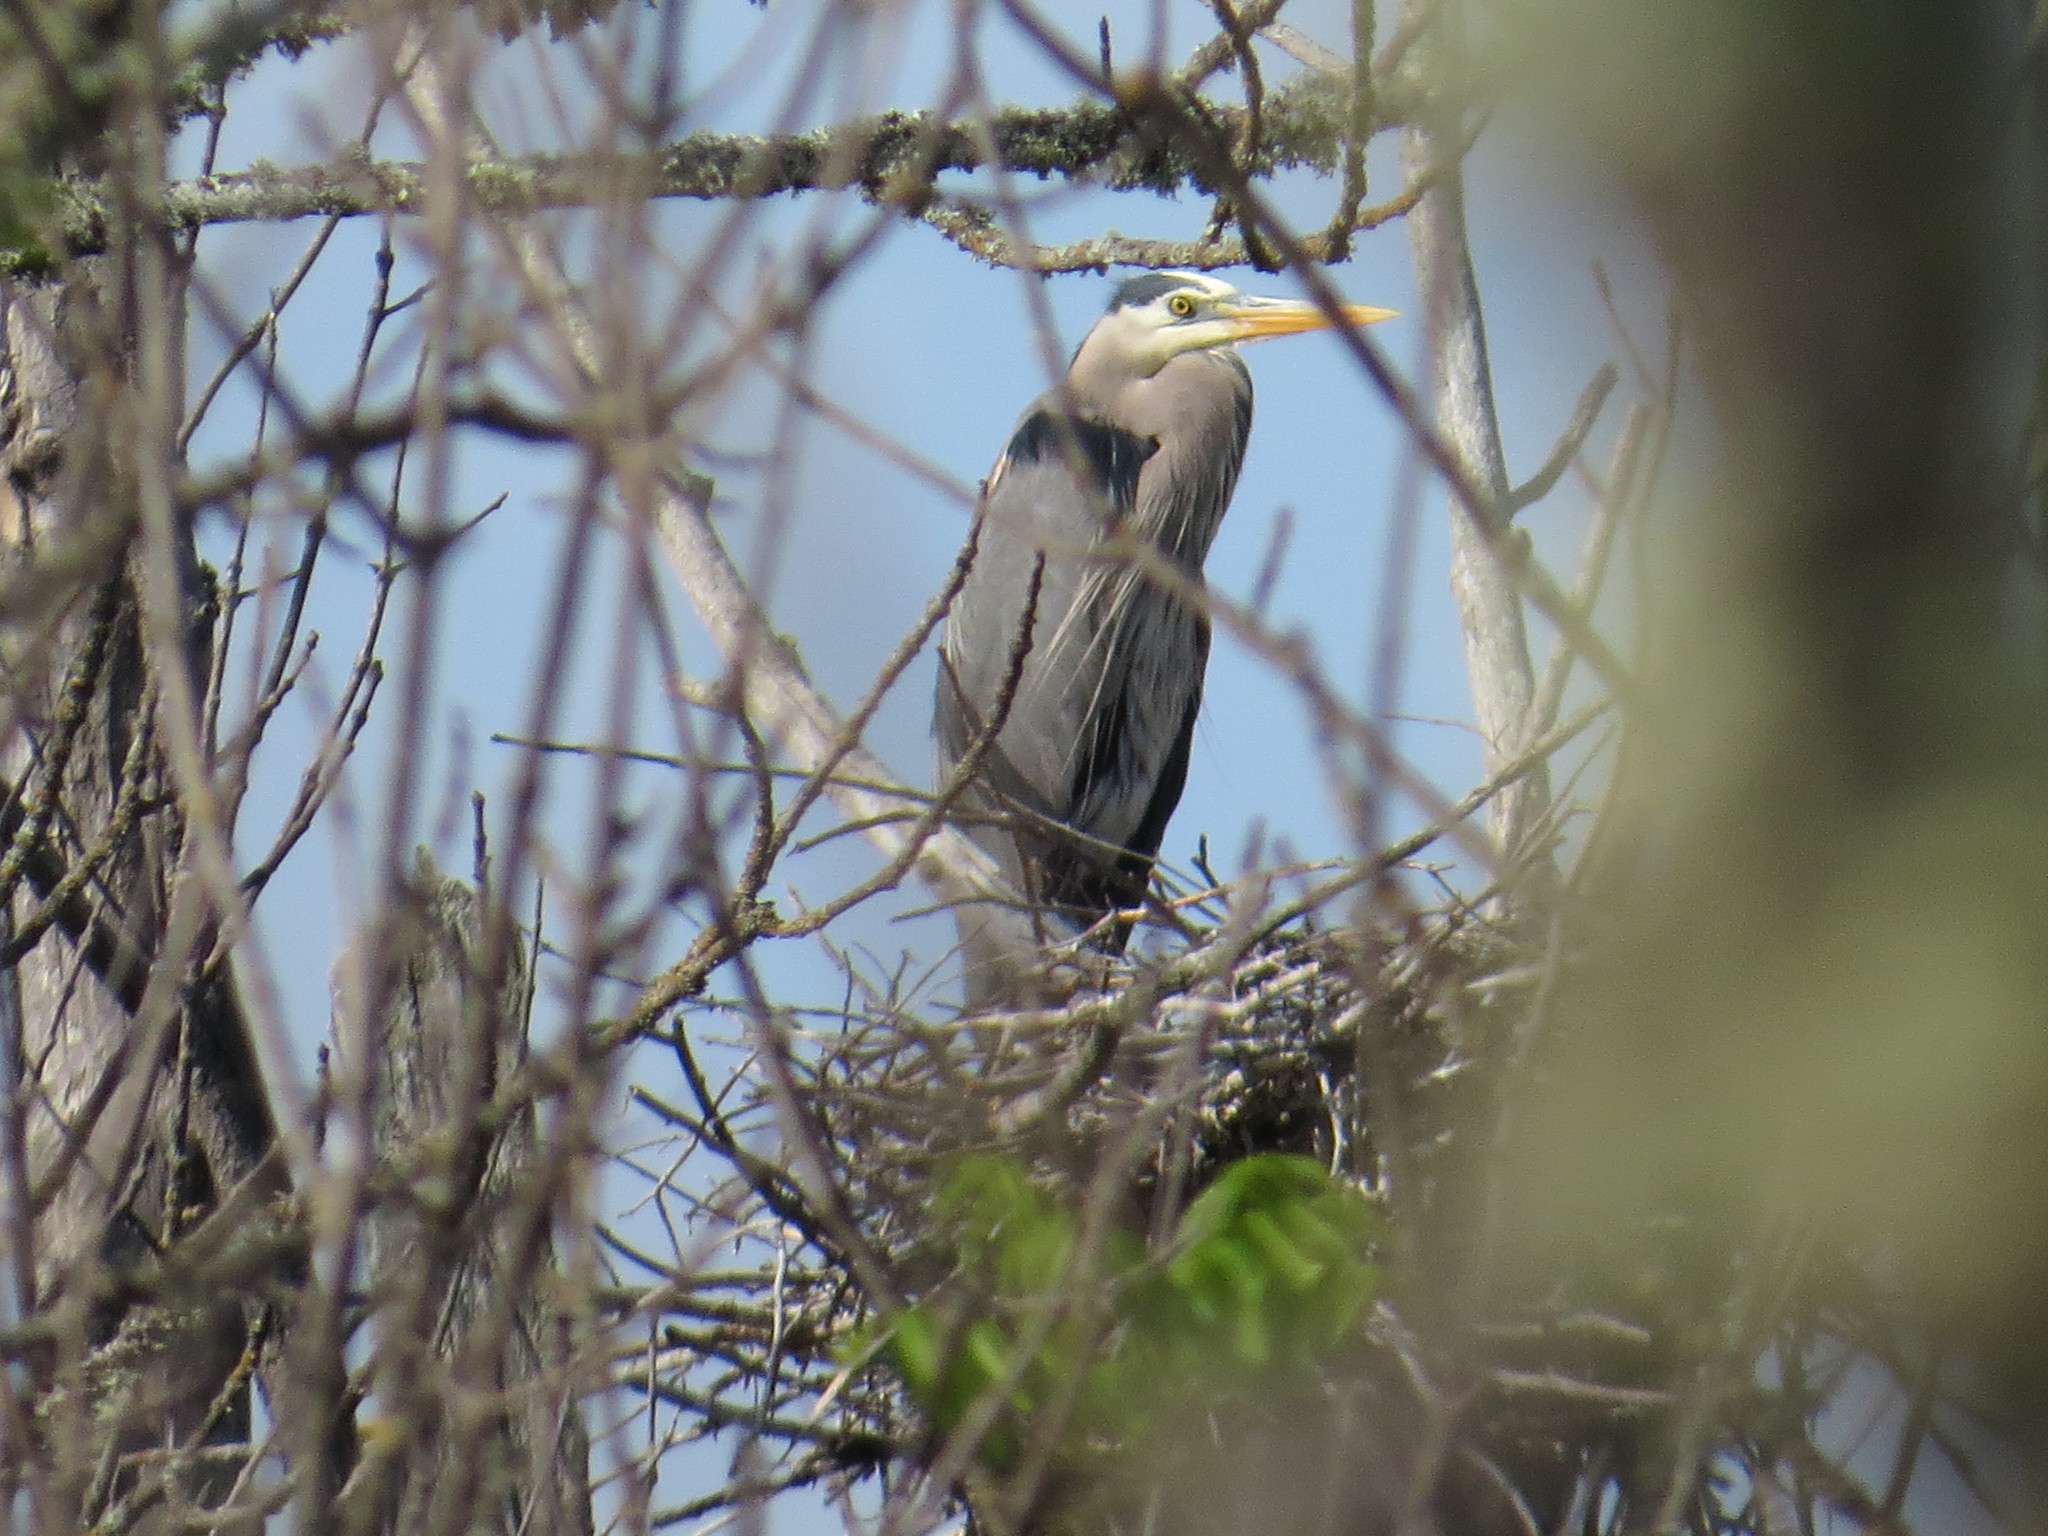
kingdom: Animalia
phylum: Chordata
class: Aves
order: Pelecaniformes
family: Ardeidae
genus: Ardea
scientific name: Ardea herodias
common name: Great blue heron
